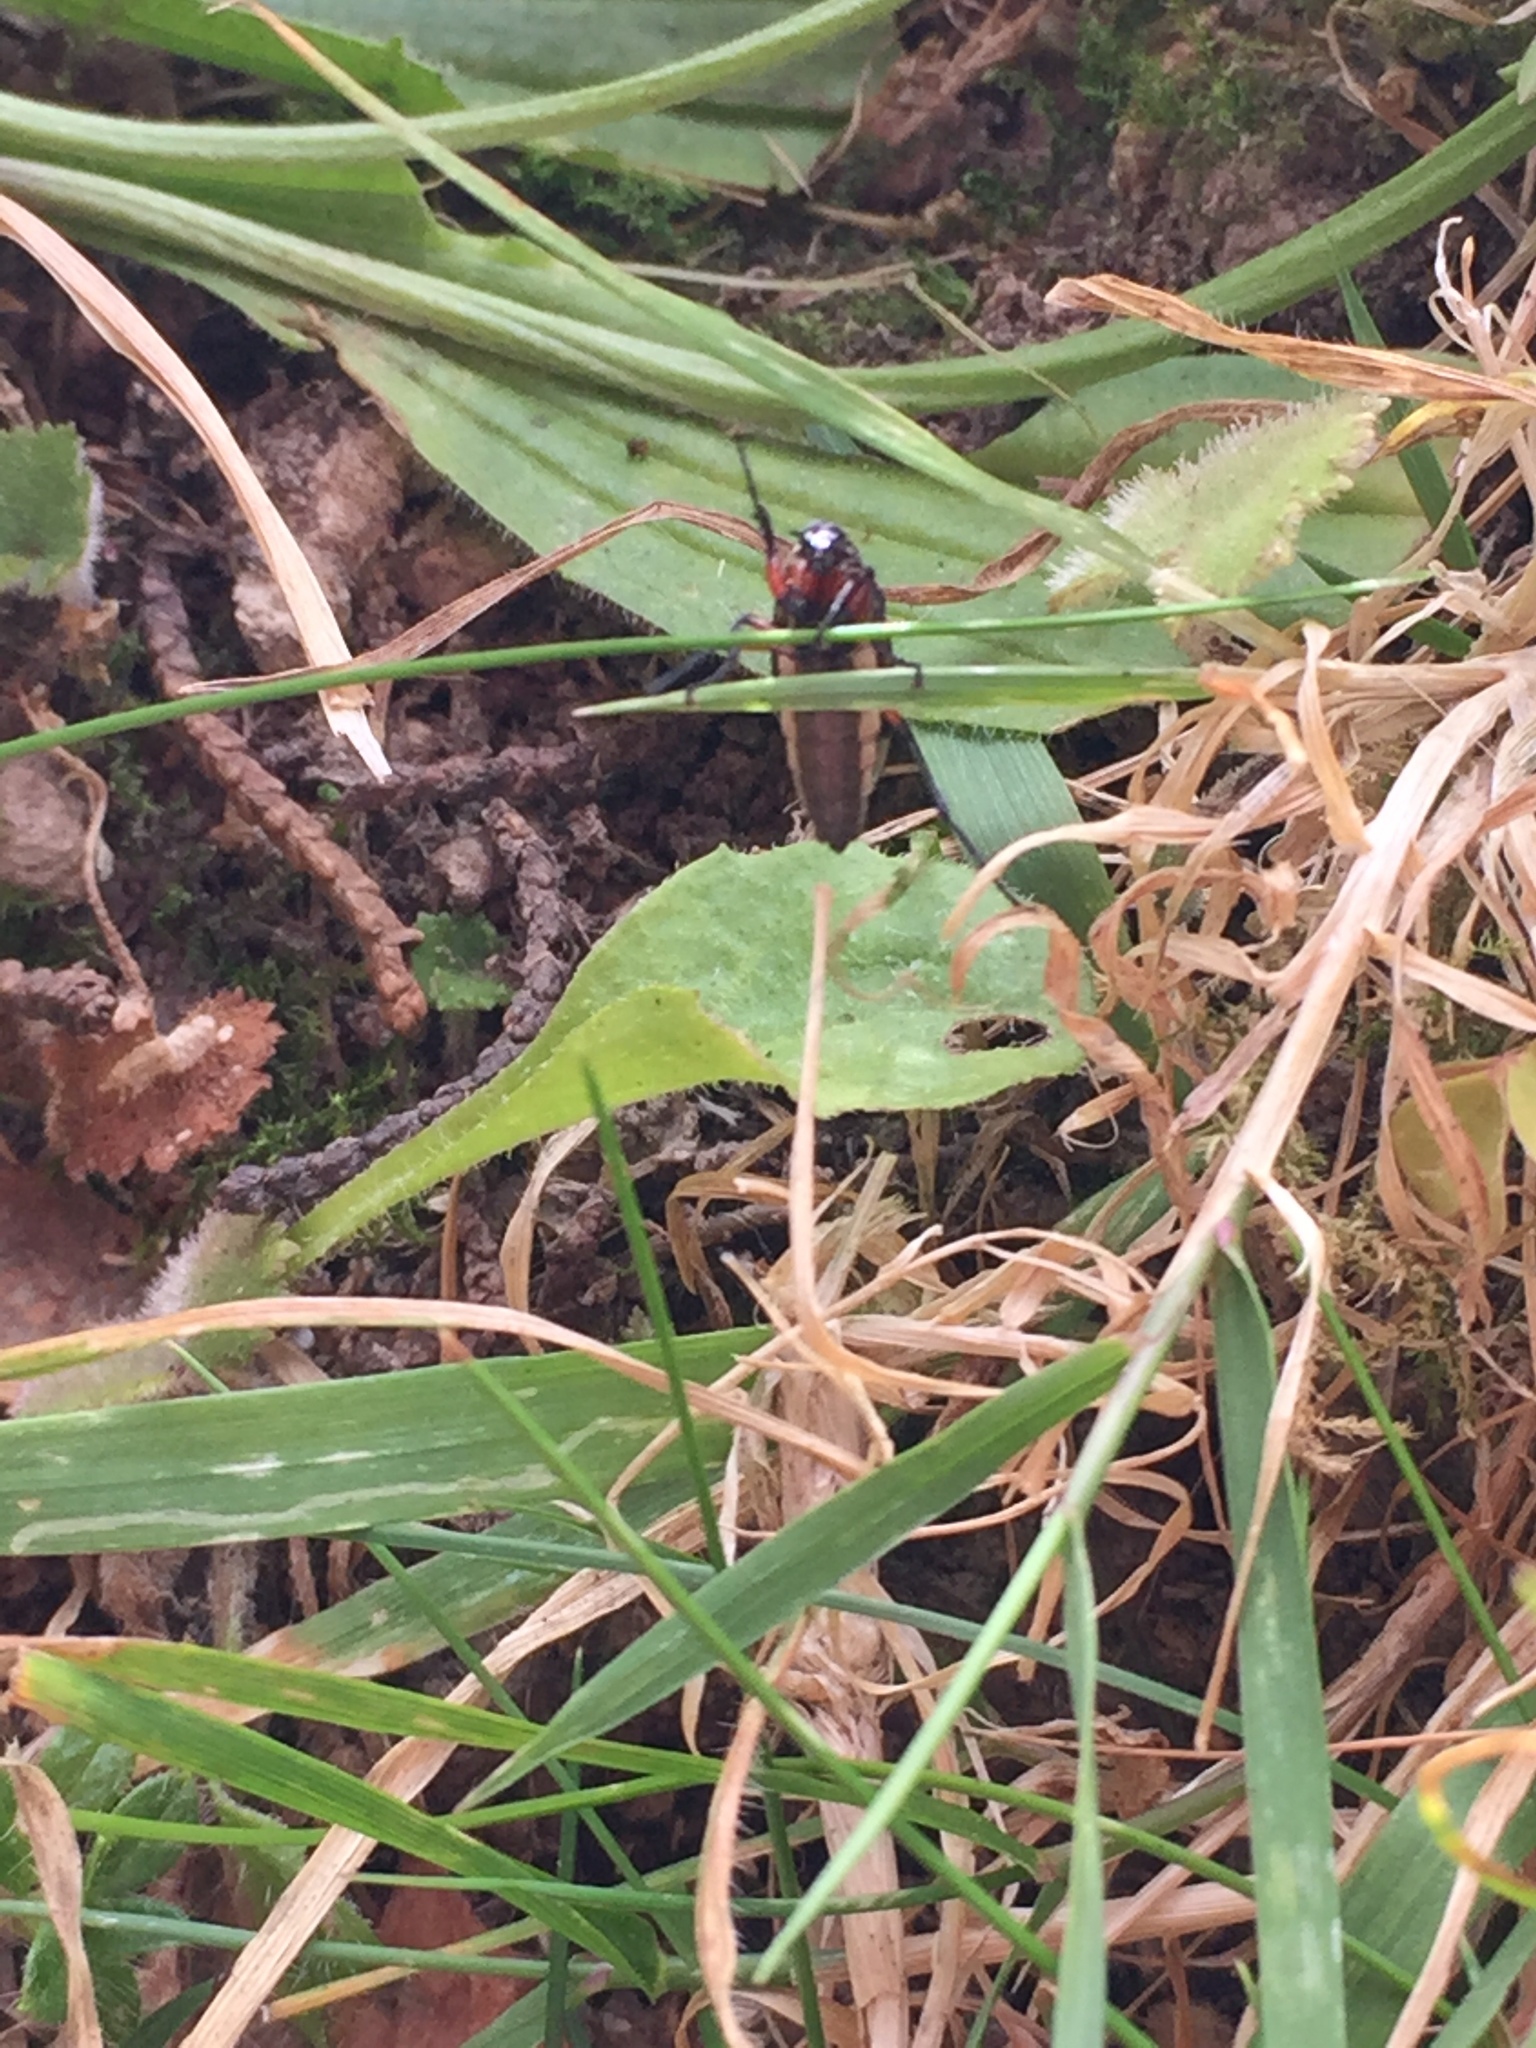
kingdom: Animalia
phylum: Arthropoda
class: Insecta
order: Diptera
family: Bibionidae
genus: Dilophus
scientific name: Dilophus nigrostigma
